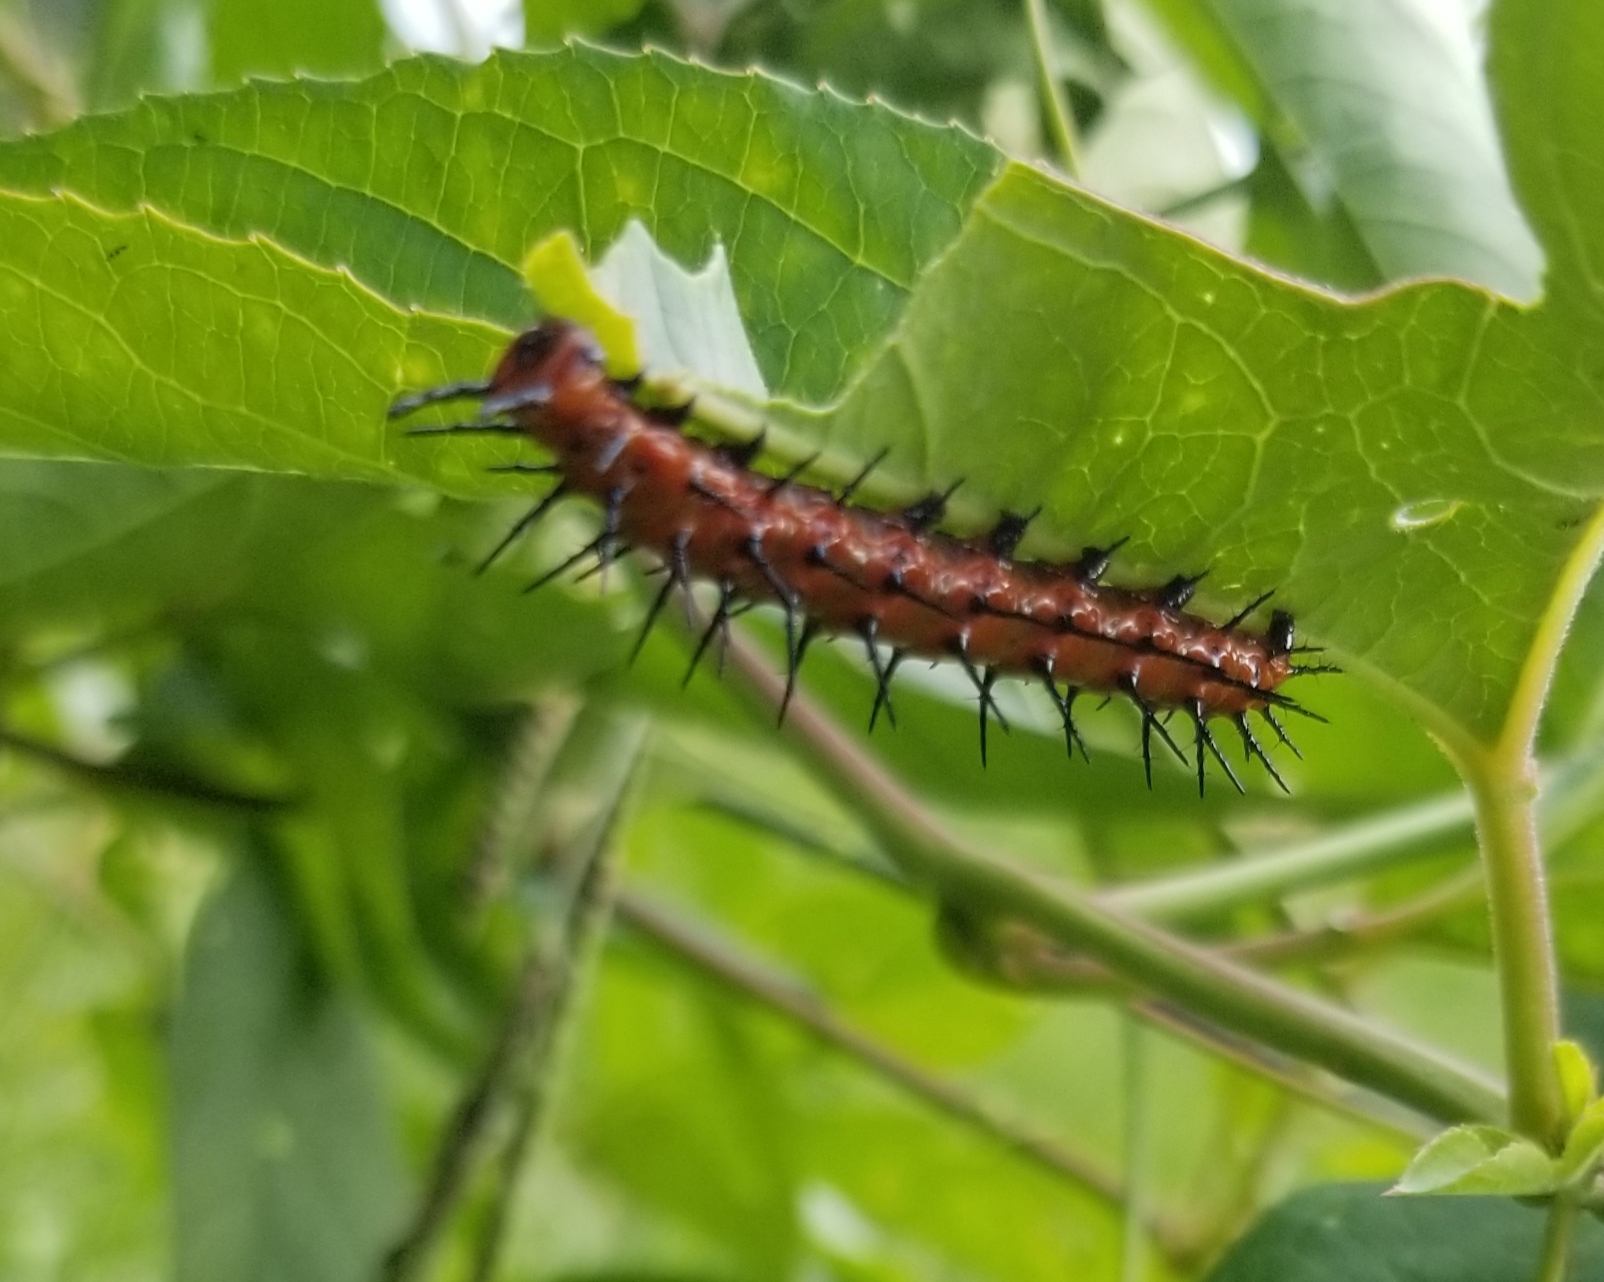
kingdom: Animalia
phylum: Arthropoda
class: Insecta
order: Lepidoptera
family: Nymphalidae
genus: Dione
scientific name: Dione vanillae
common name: Gulf fritillary
